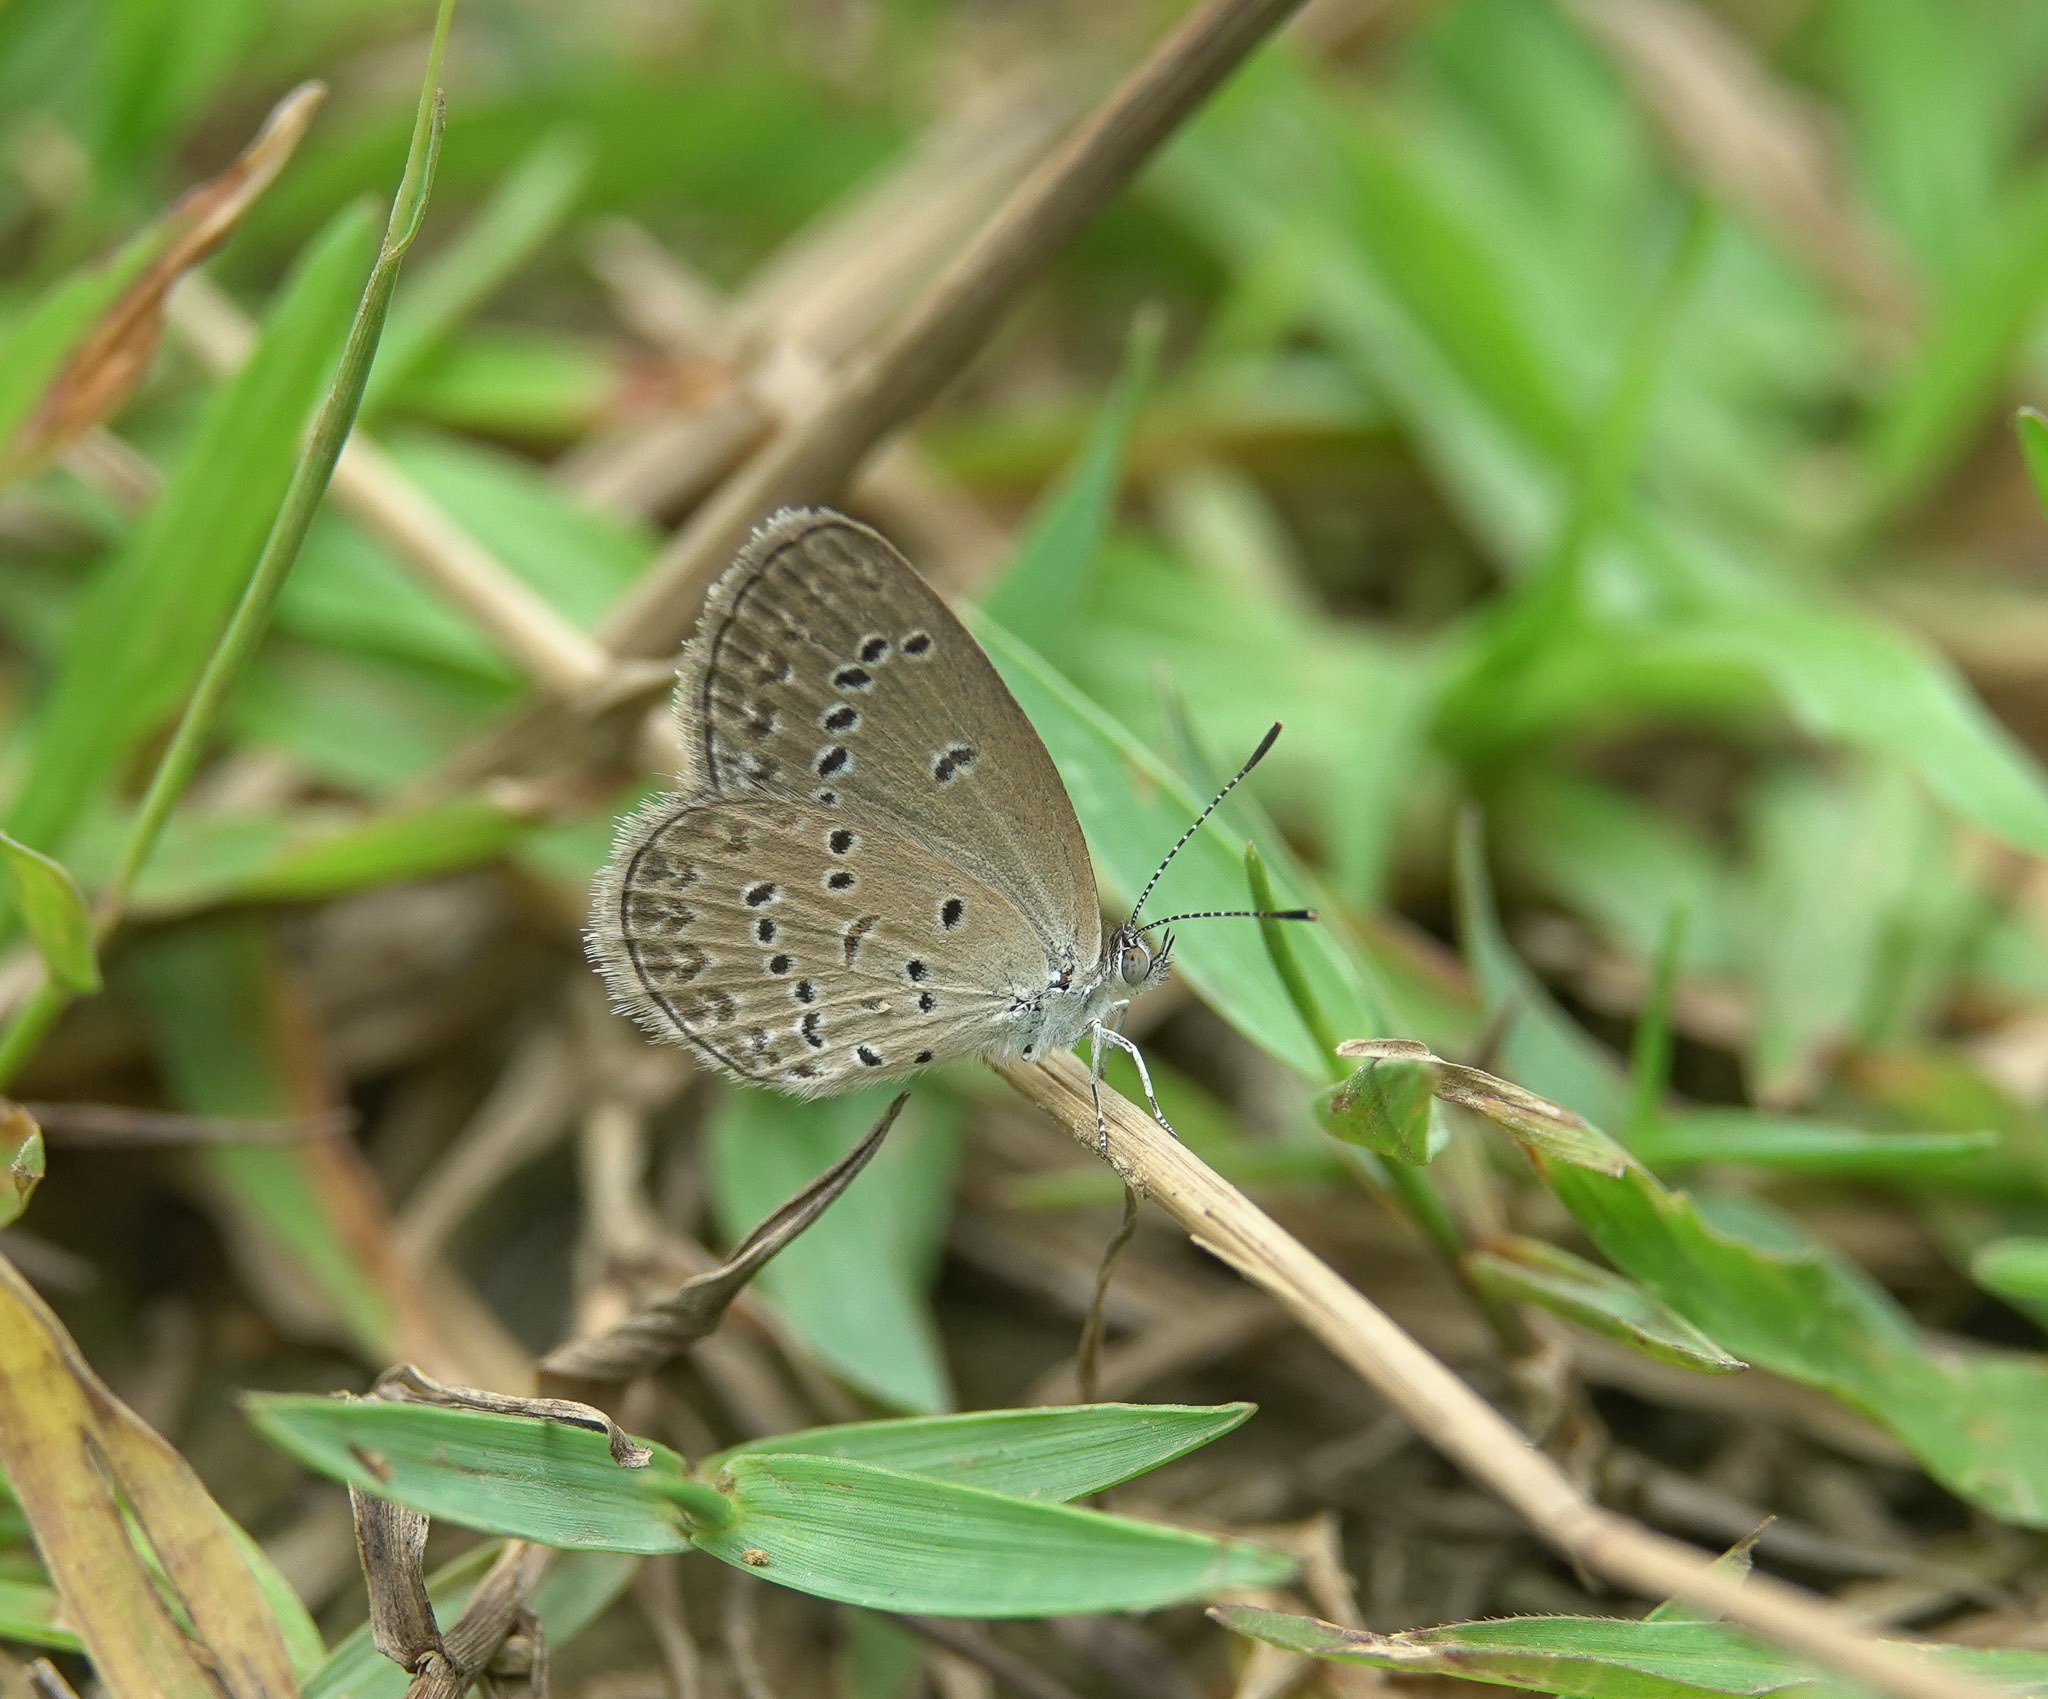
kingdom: Animalia
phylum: Arthropoda
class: Insecta
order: Lepidoptera
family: Lycaenidae
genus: Zizina
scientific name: Zizina otis
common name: Lesser grass blue
